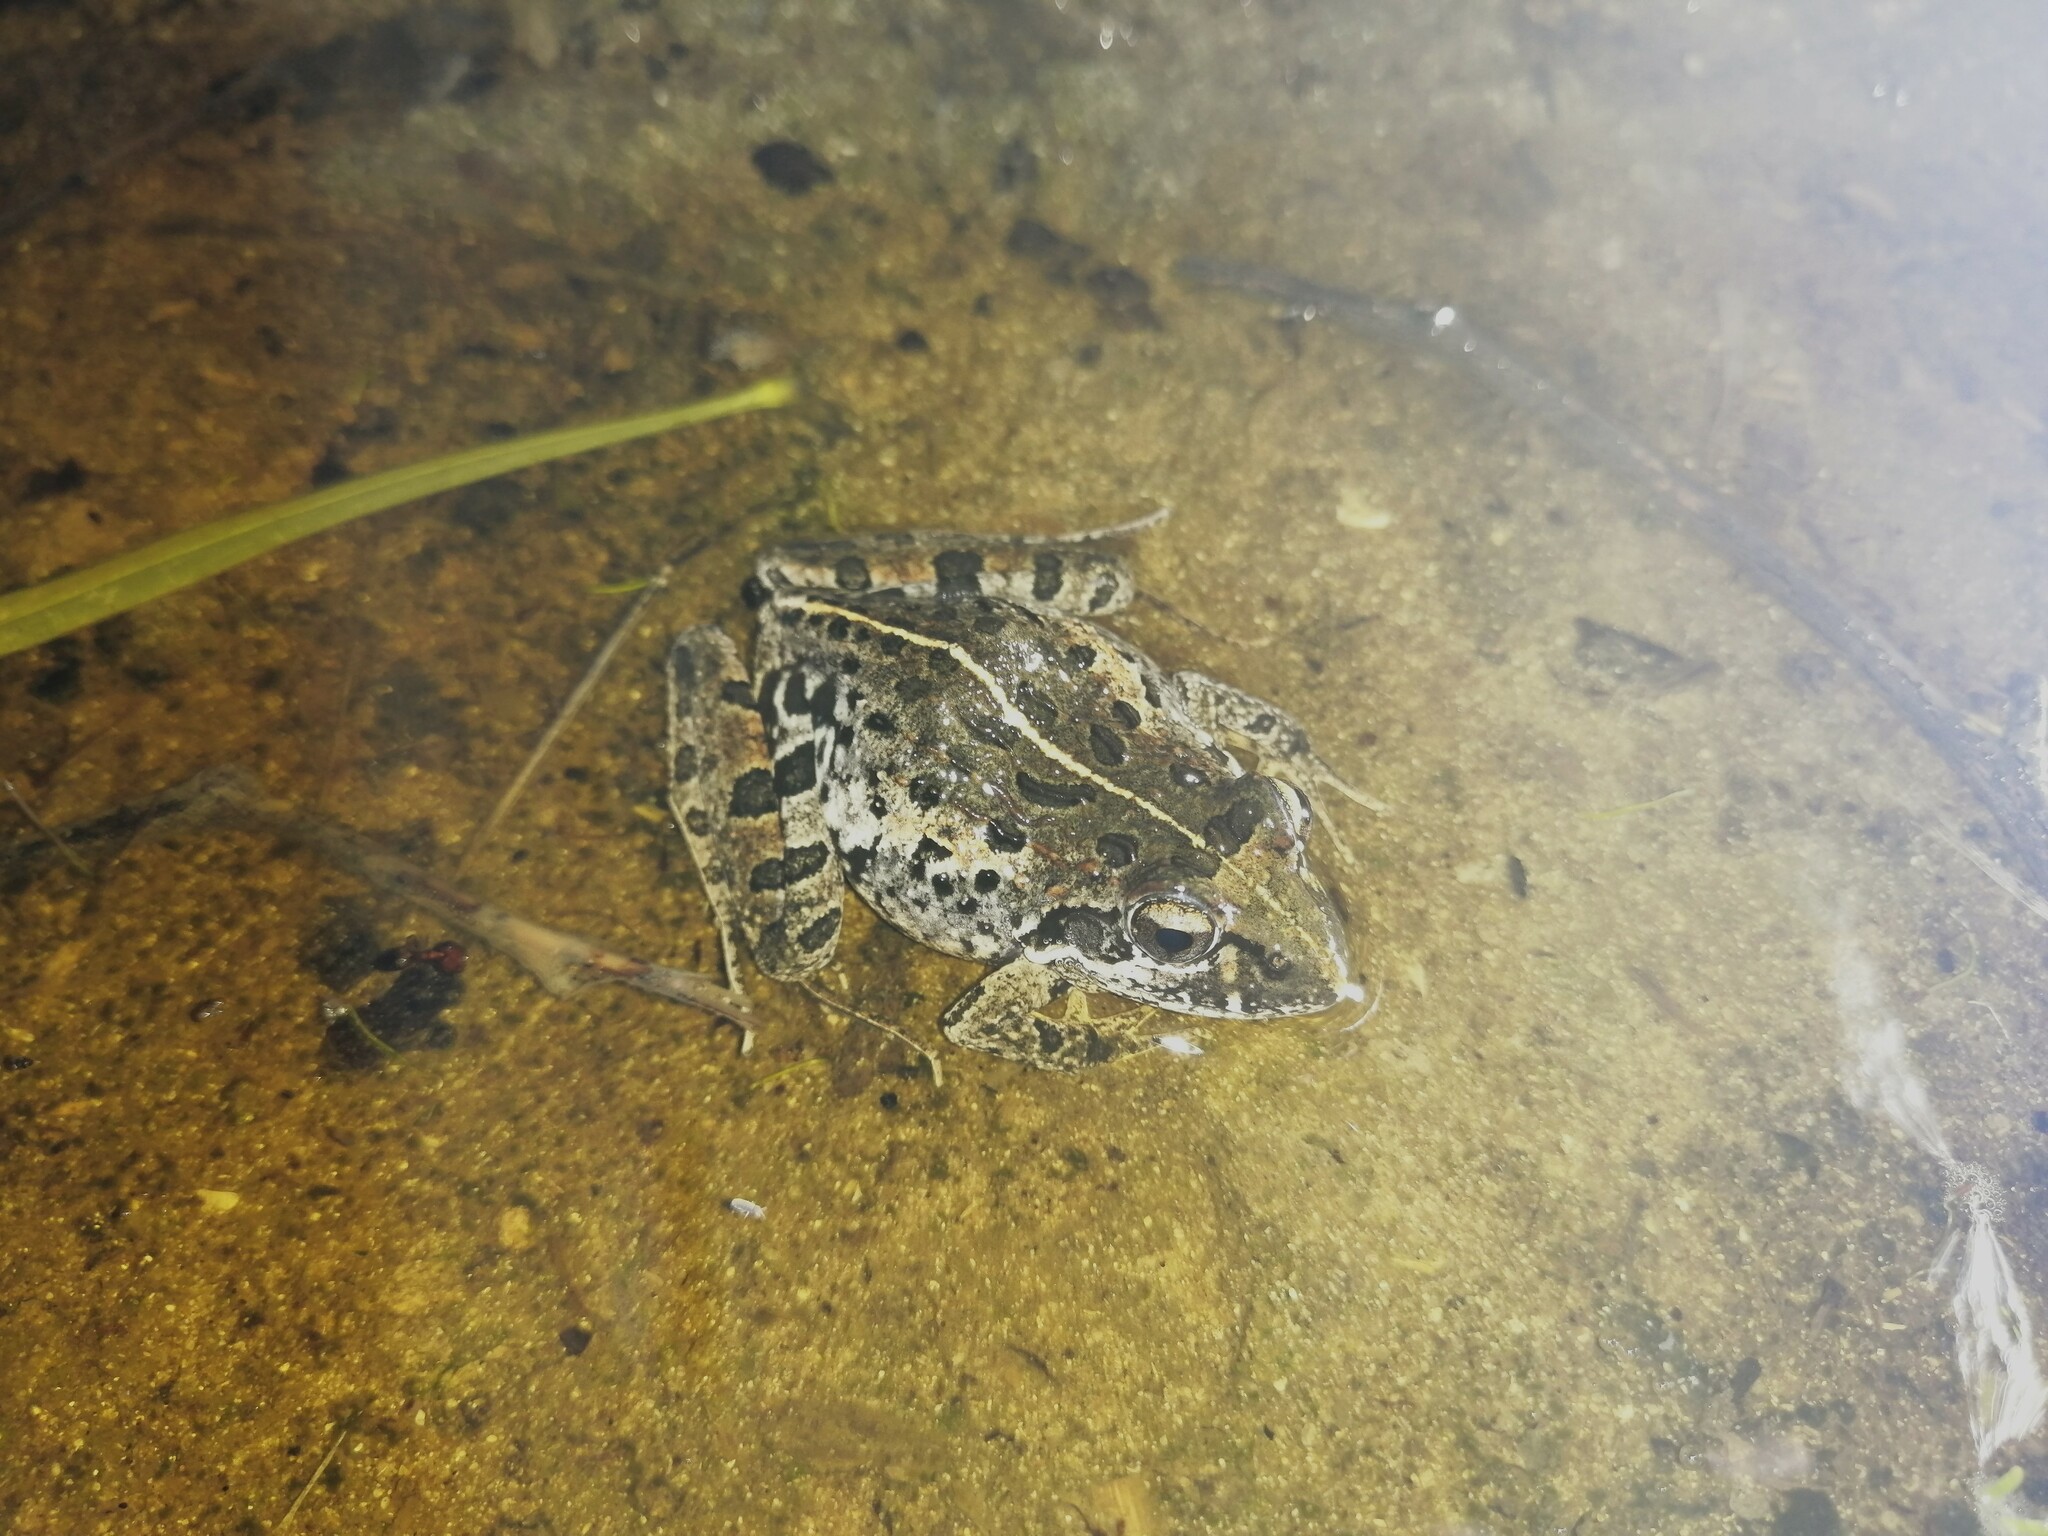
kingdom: Animalia
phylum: Chordata
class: Amphibia
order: Anura
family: Pyxicephalidae
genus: Strongylopus
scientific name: Strongylopus grayii
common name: Gray's stream frog
